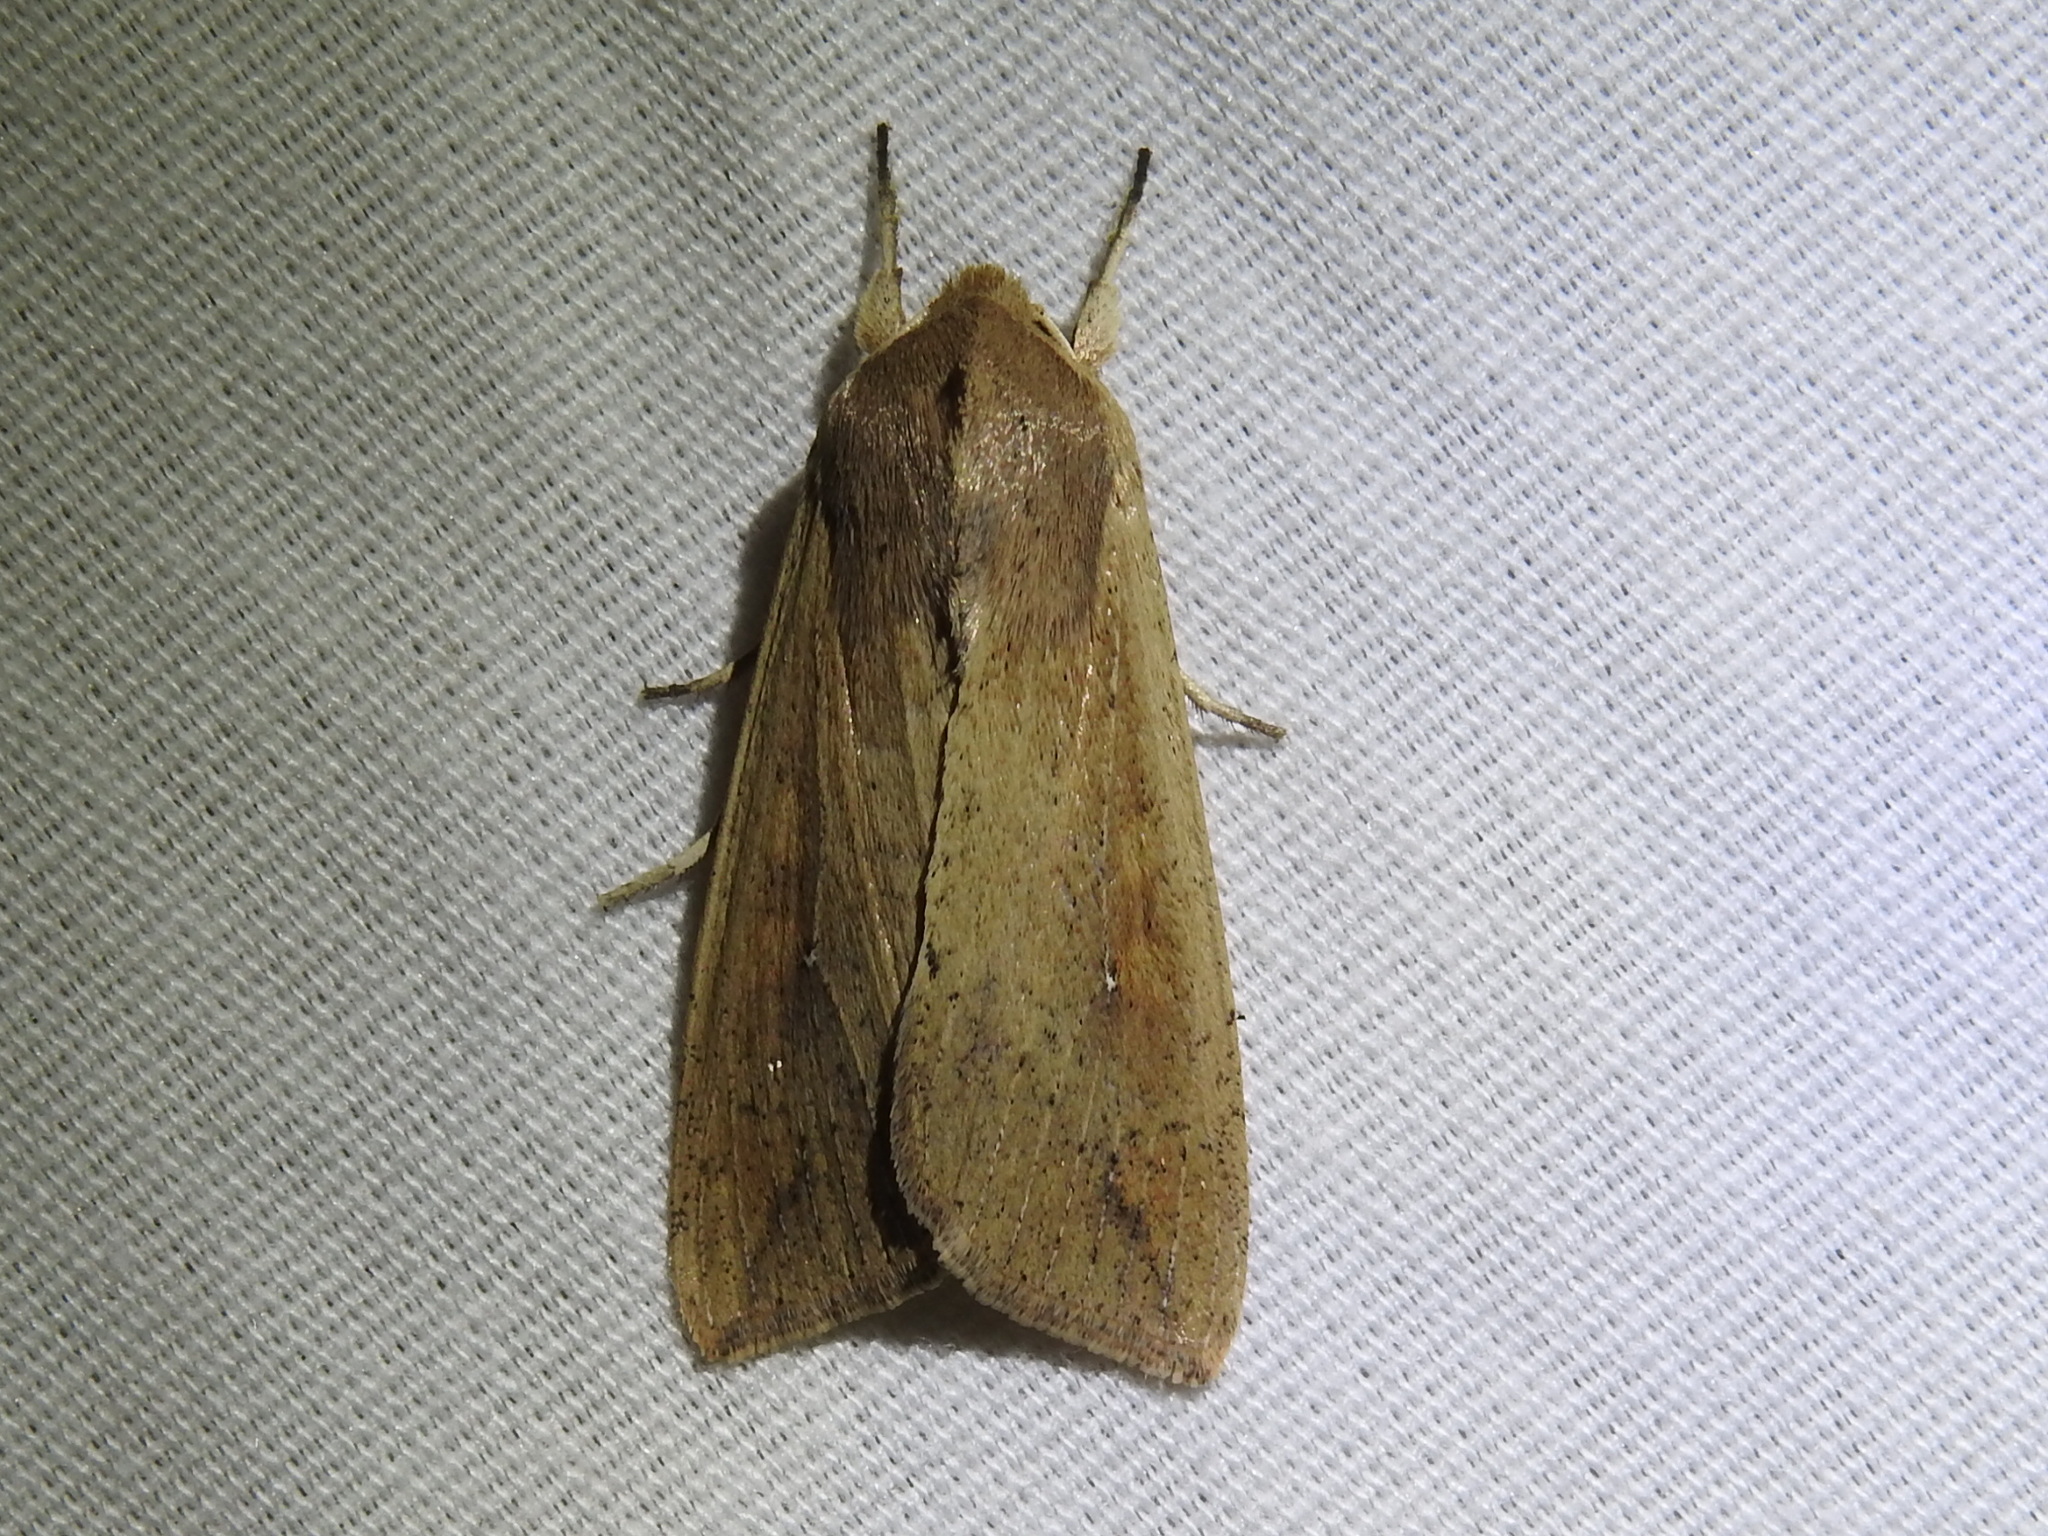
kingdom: Animalia
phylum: Arthropoda
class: Insecta
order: Lepidoptera
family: Noctuidae
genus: Mythimna
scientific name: Mythimna unipuncta
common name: White-speck
